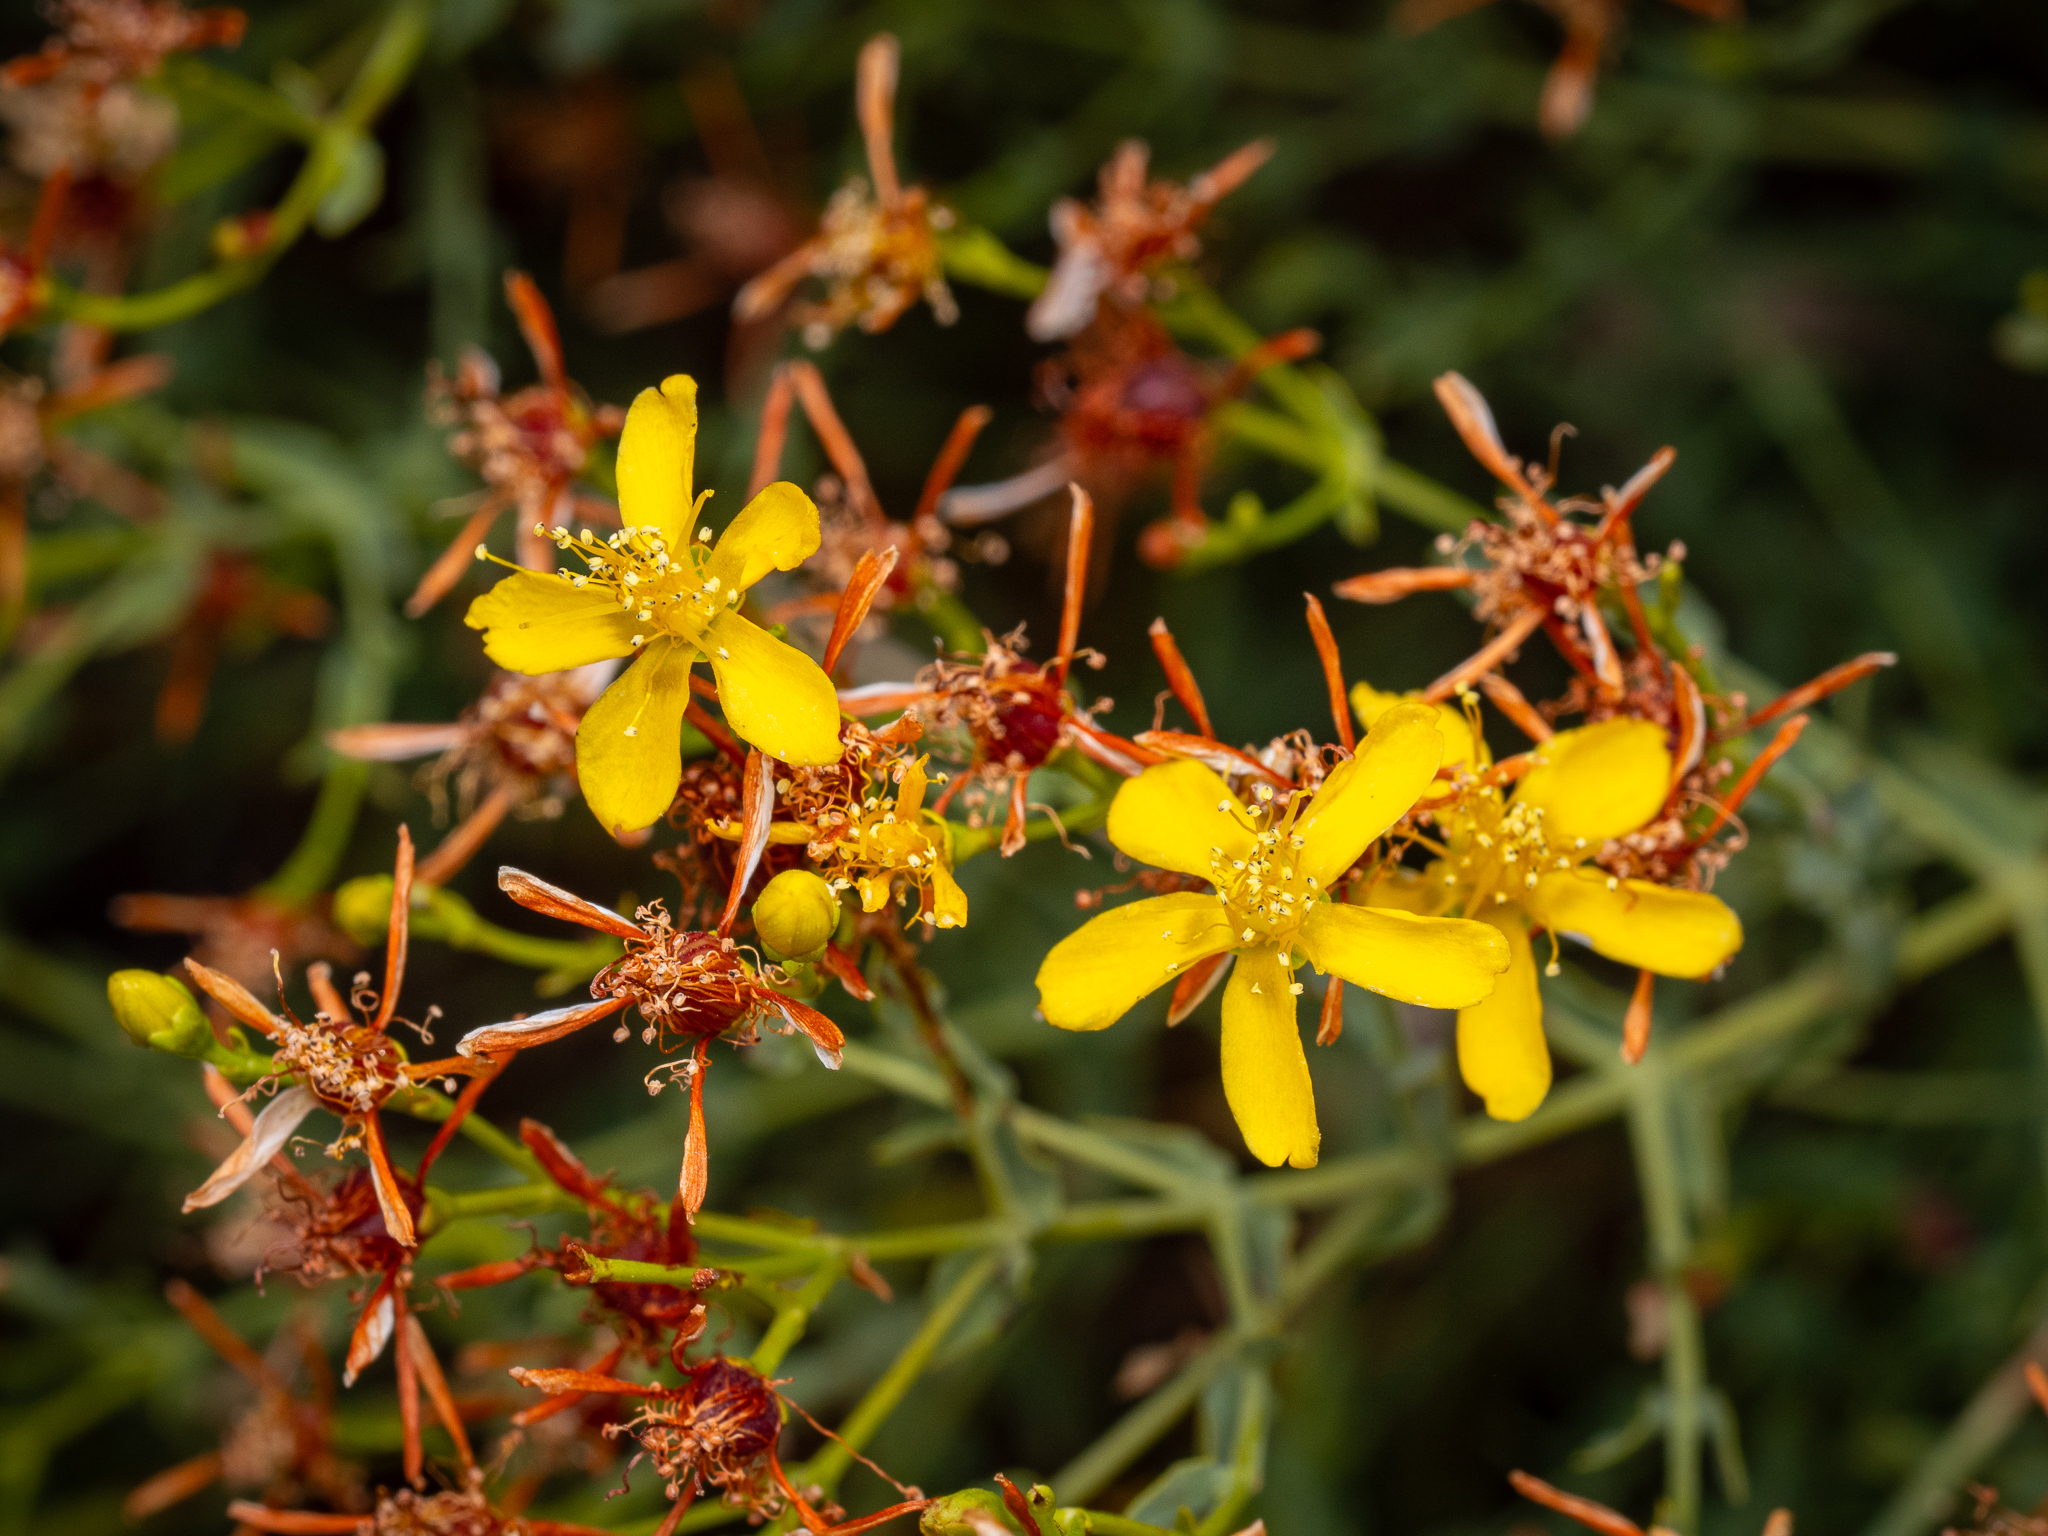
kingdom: Plantae
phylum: Tracheophyta
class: Magnoliopsida
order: Malpighiales
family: Hypericaceae
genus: Hypericum
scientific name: Hypericum triquetrifolium
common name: Tangled hypericum
